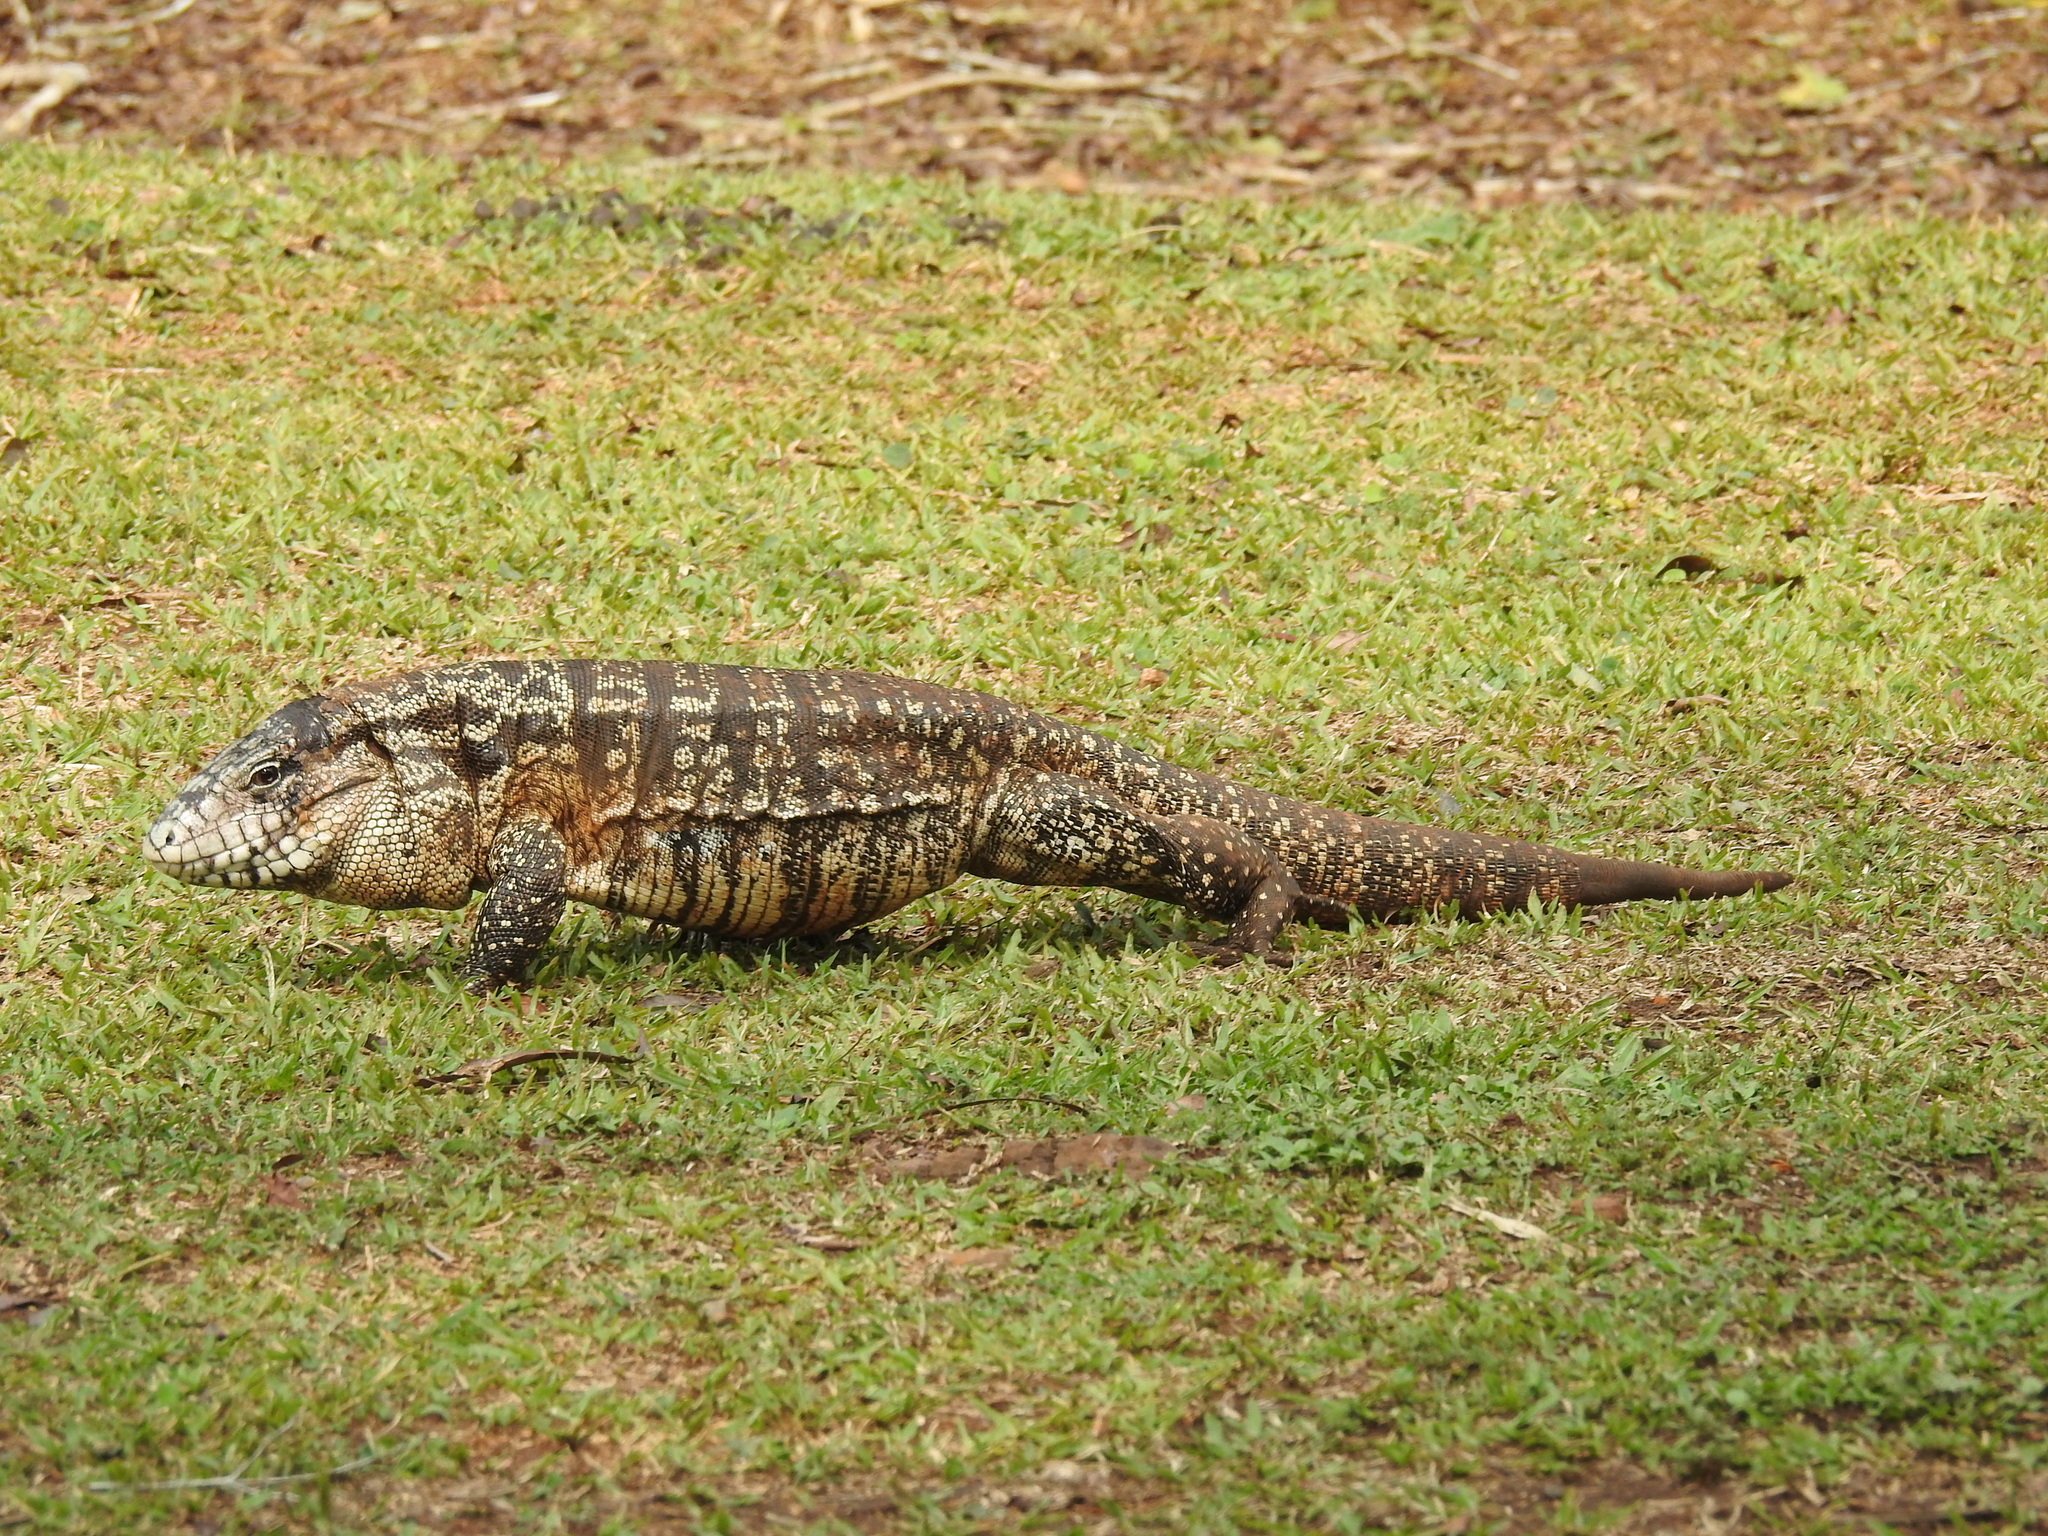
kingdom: Animalia
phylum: Chordata
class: Squamata
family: Teiidae
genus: Salvator
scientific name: Salvator merianae
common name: Argentine black and white tegu
